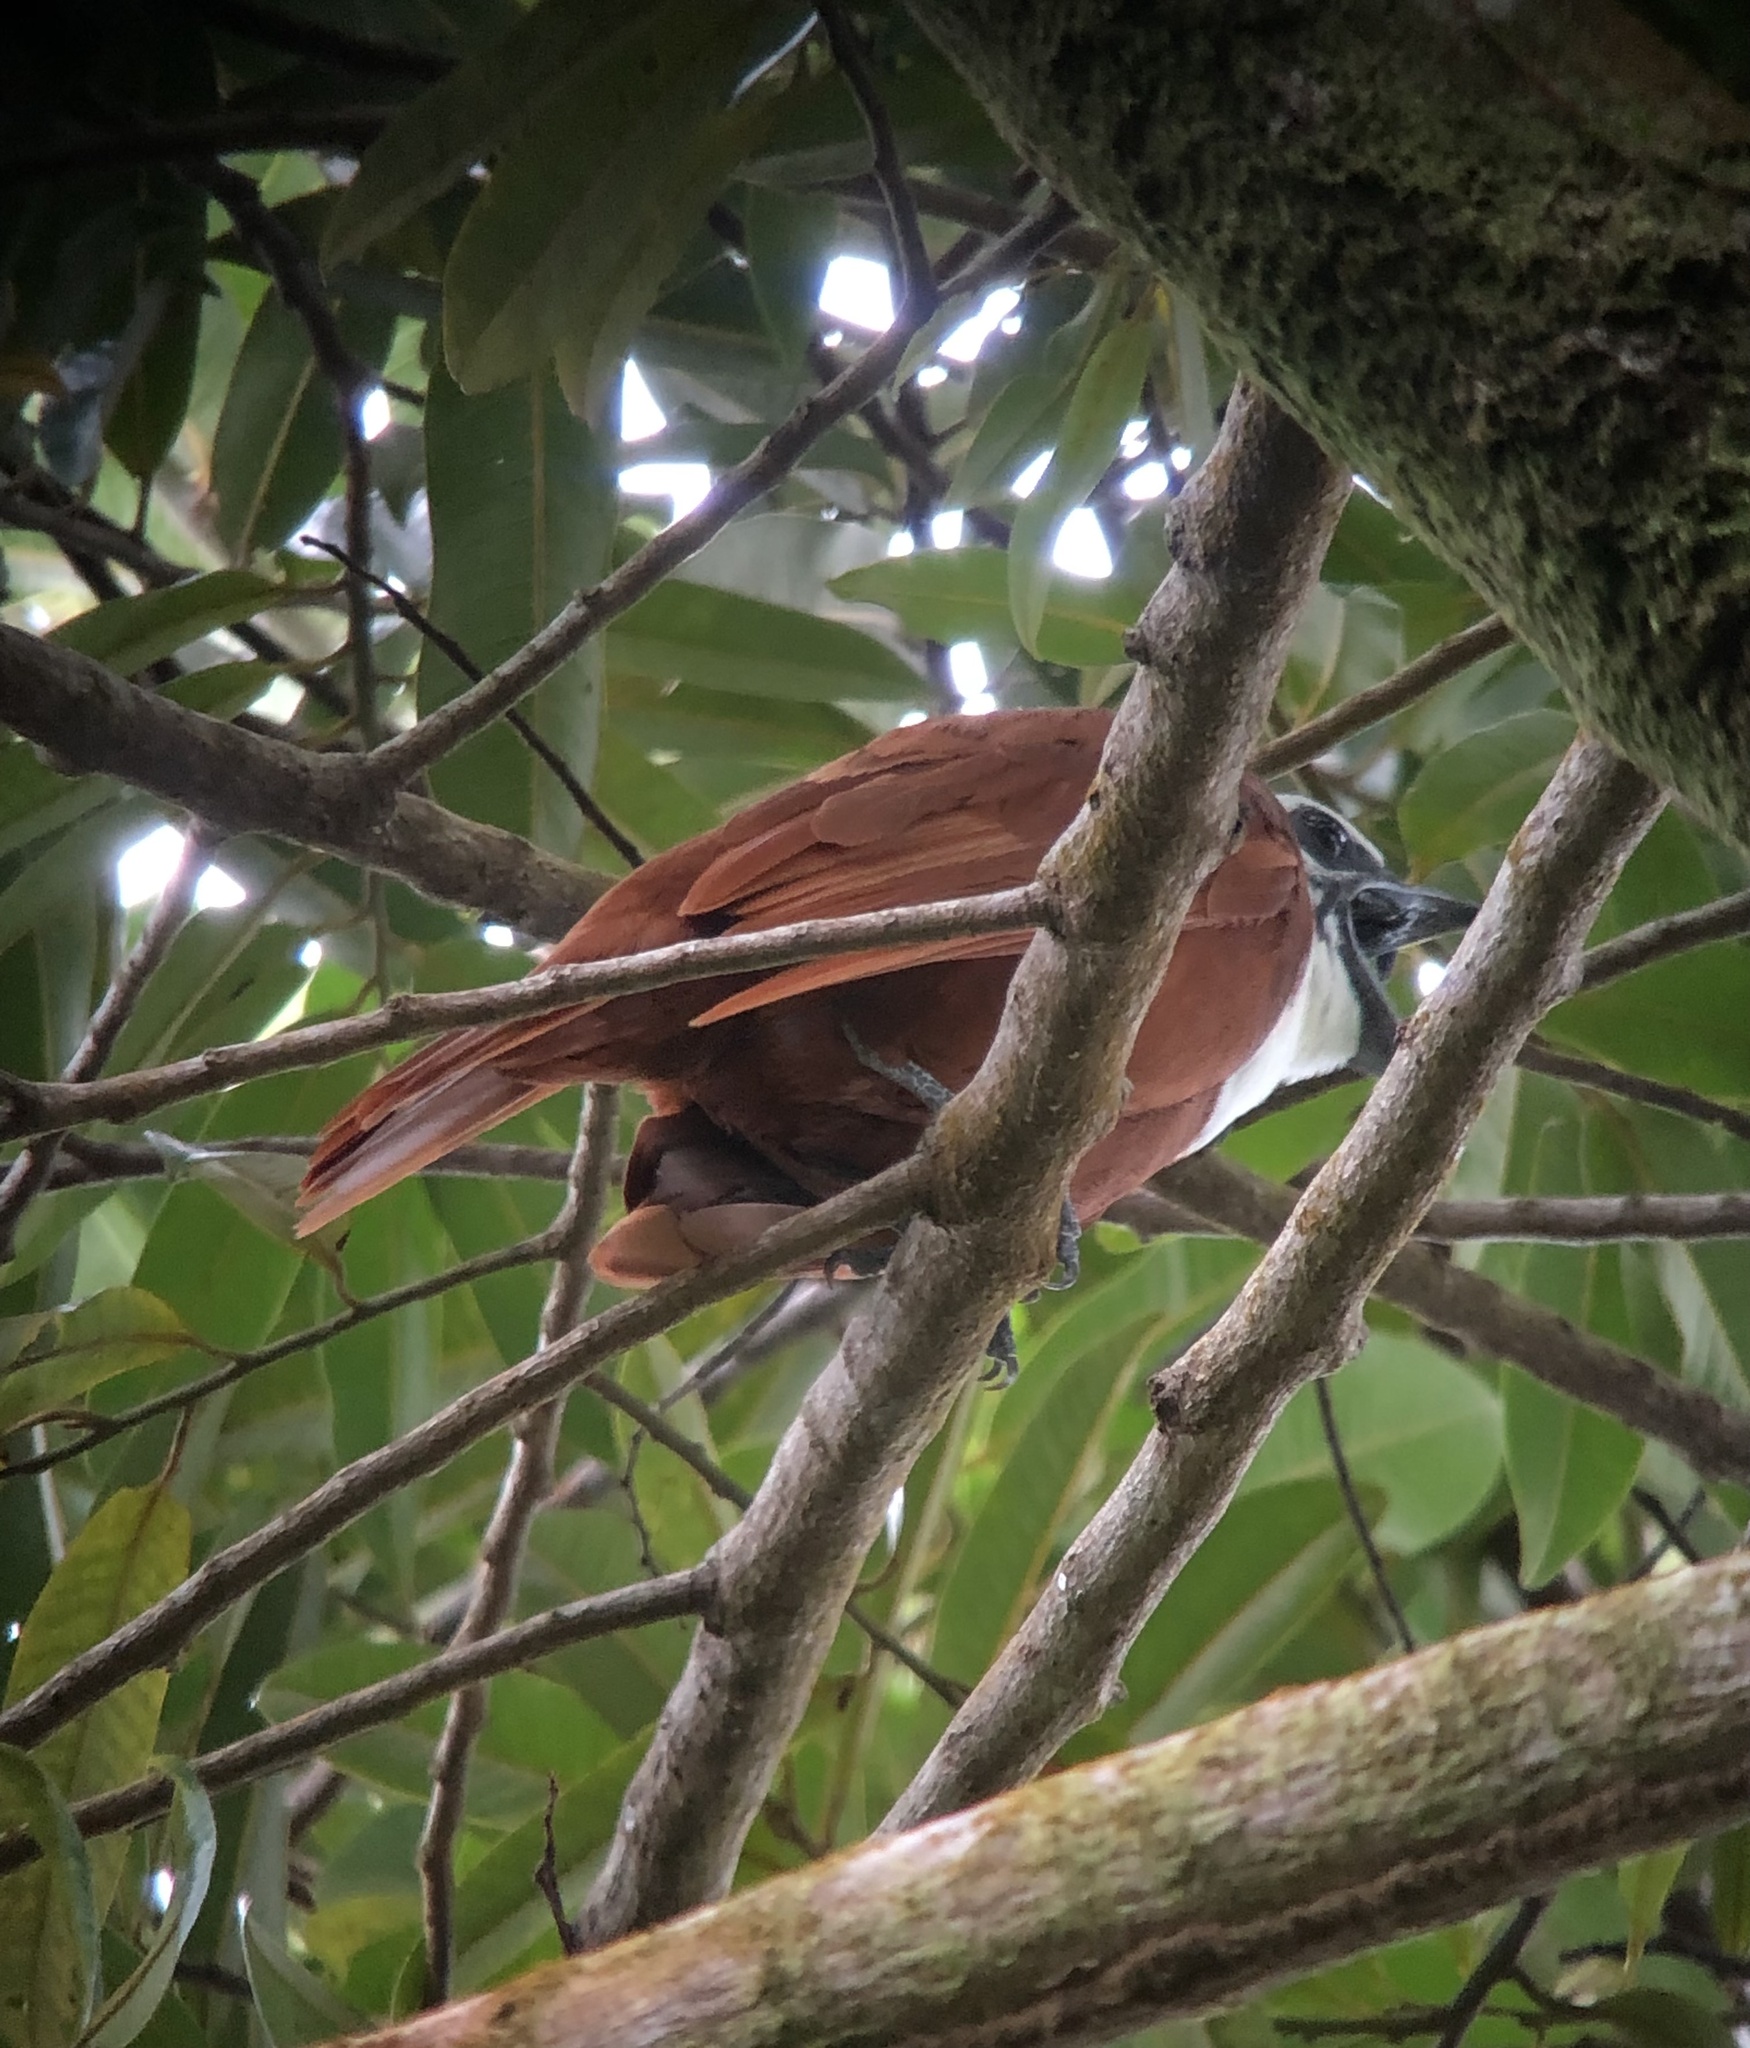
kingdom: Animalia
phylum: Chordata
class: Aves
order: Passeriformes
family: Cotingidae
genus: Procnias
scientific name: Procnias tricarunculatus
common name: Three-wattled bellbird
